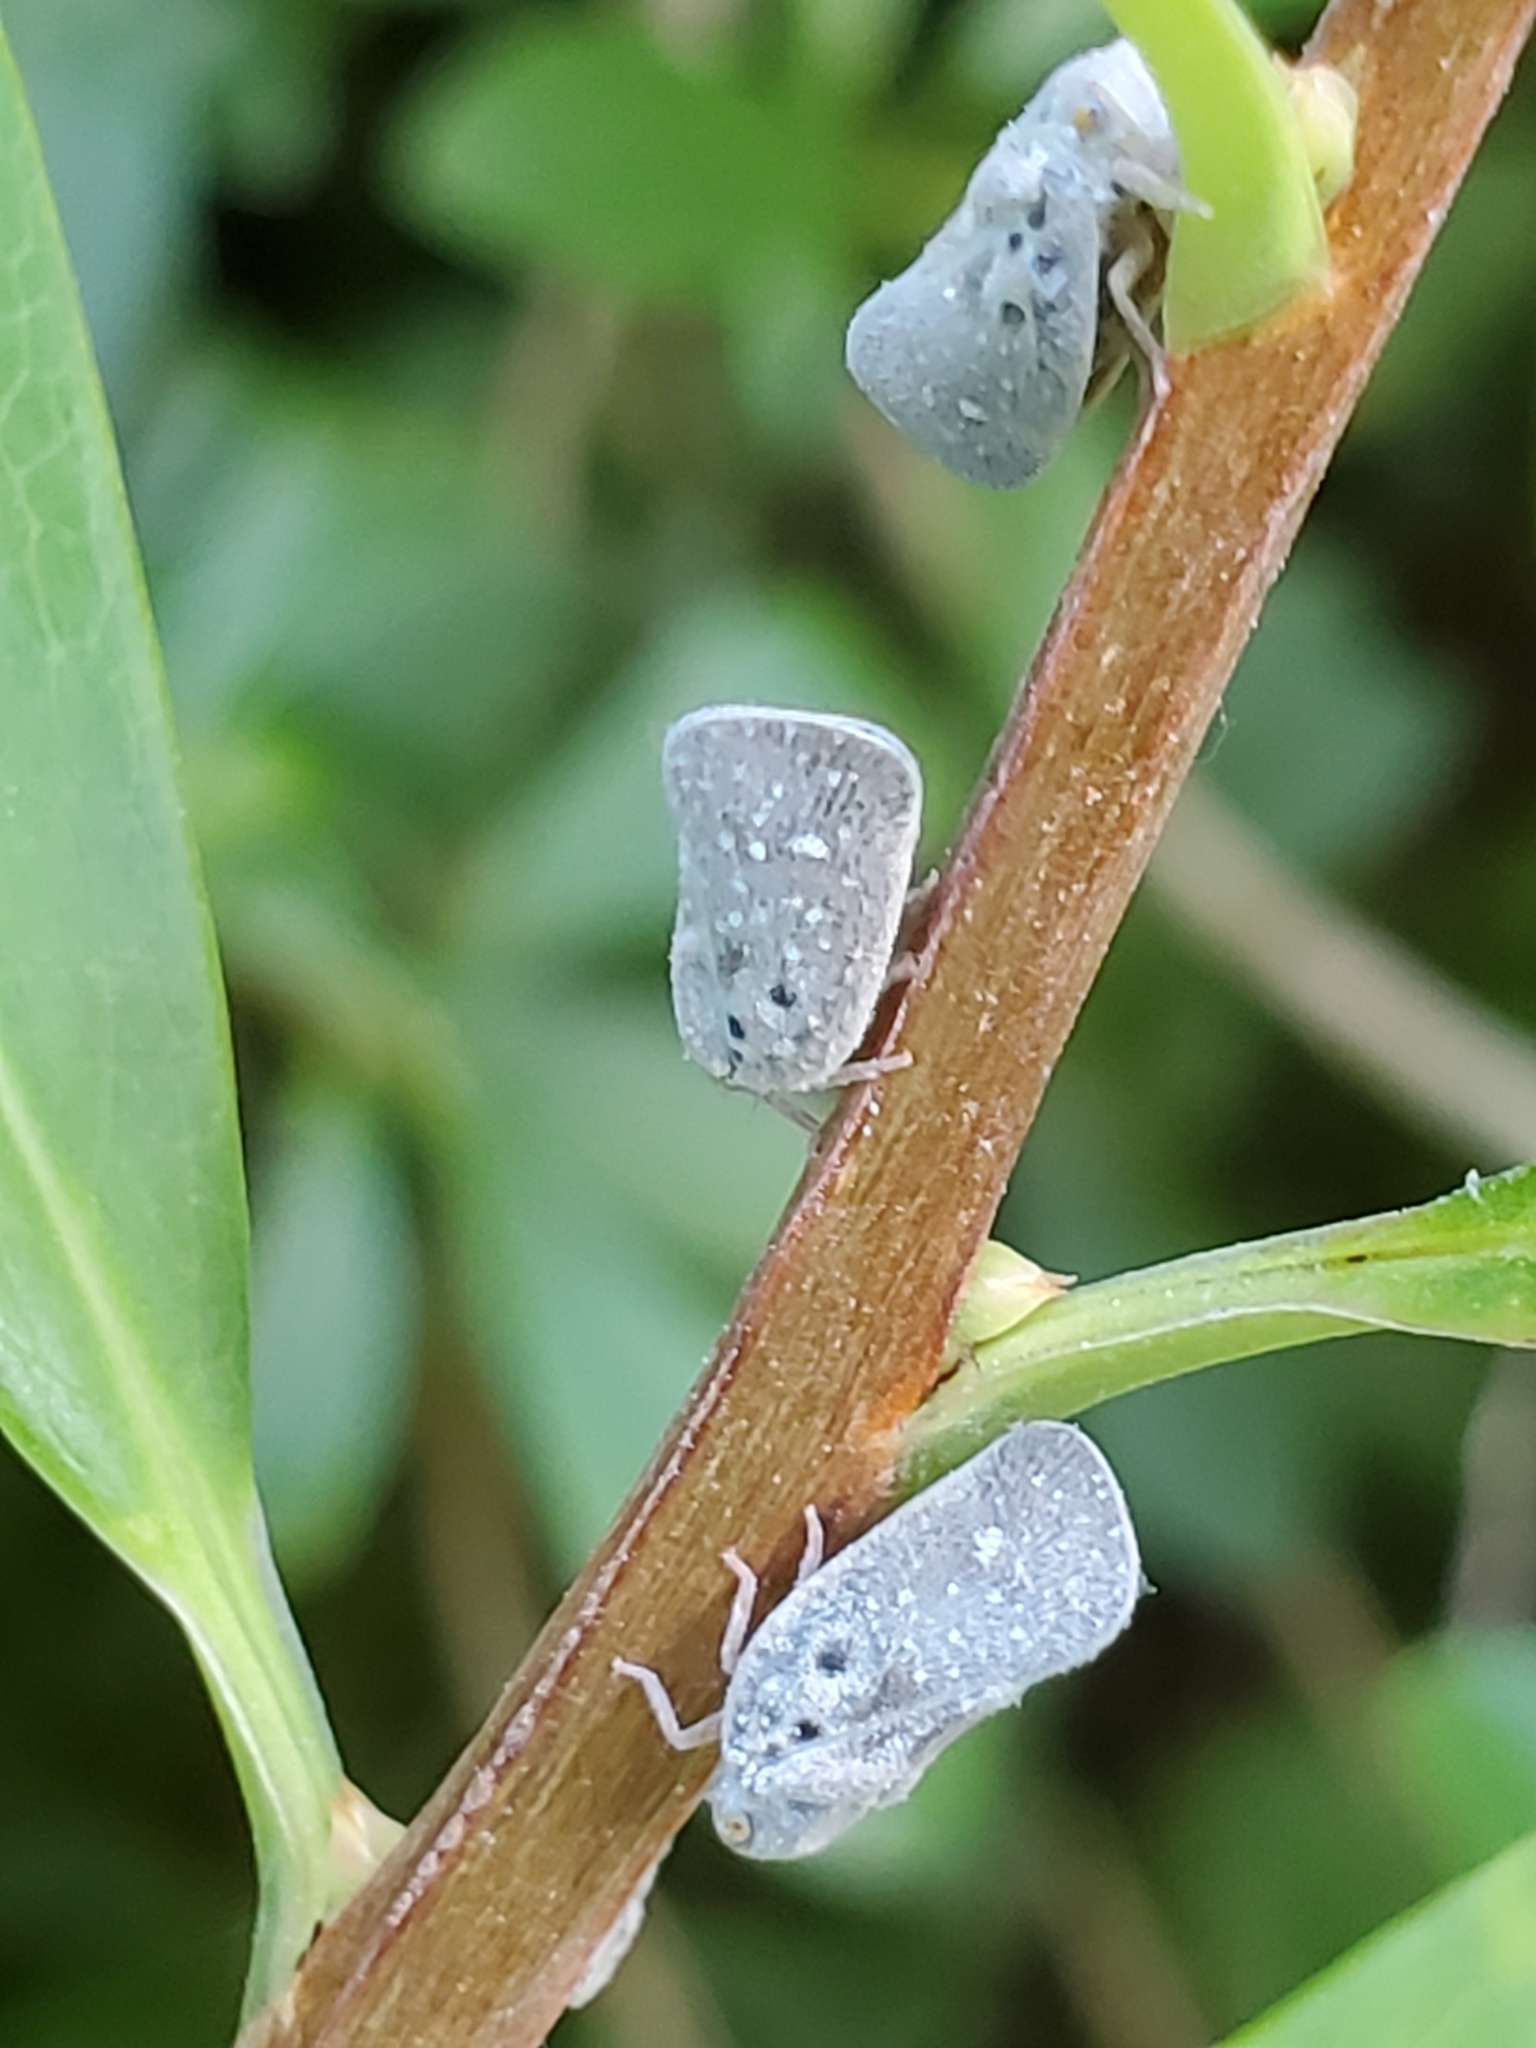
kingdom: Animalia
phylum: Arthropoda
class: Insecta
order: Hemiptera
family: Flatidae
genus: Metcalfa
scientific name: Metcalfa pruinosa
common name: Citrus flatid planthopper
